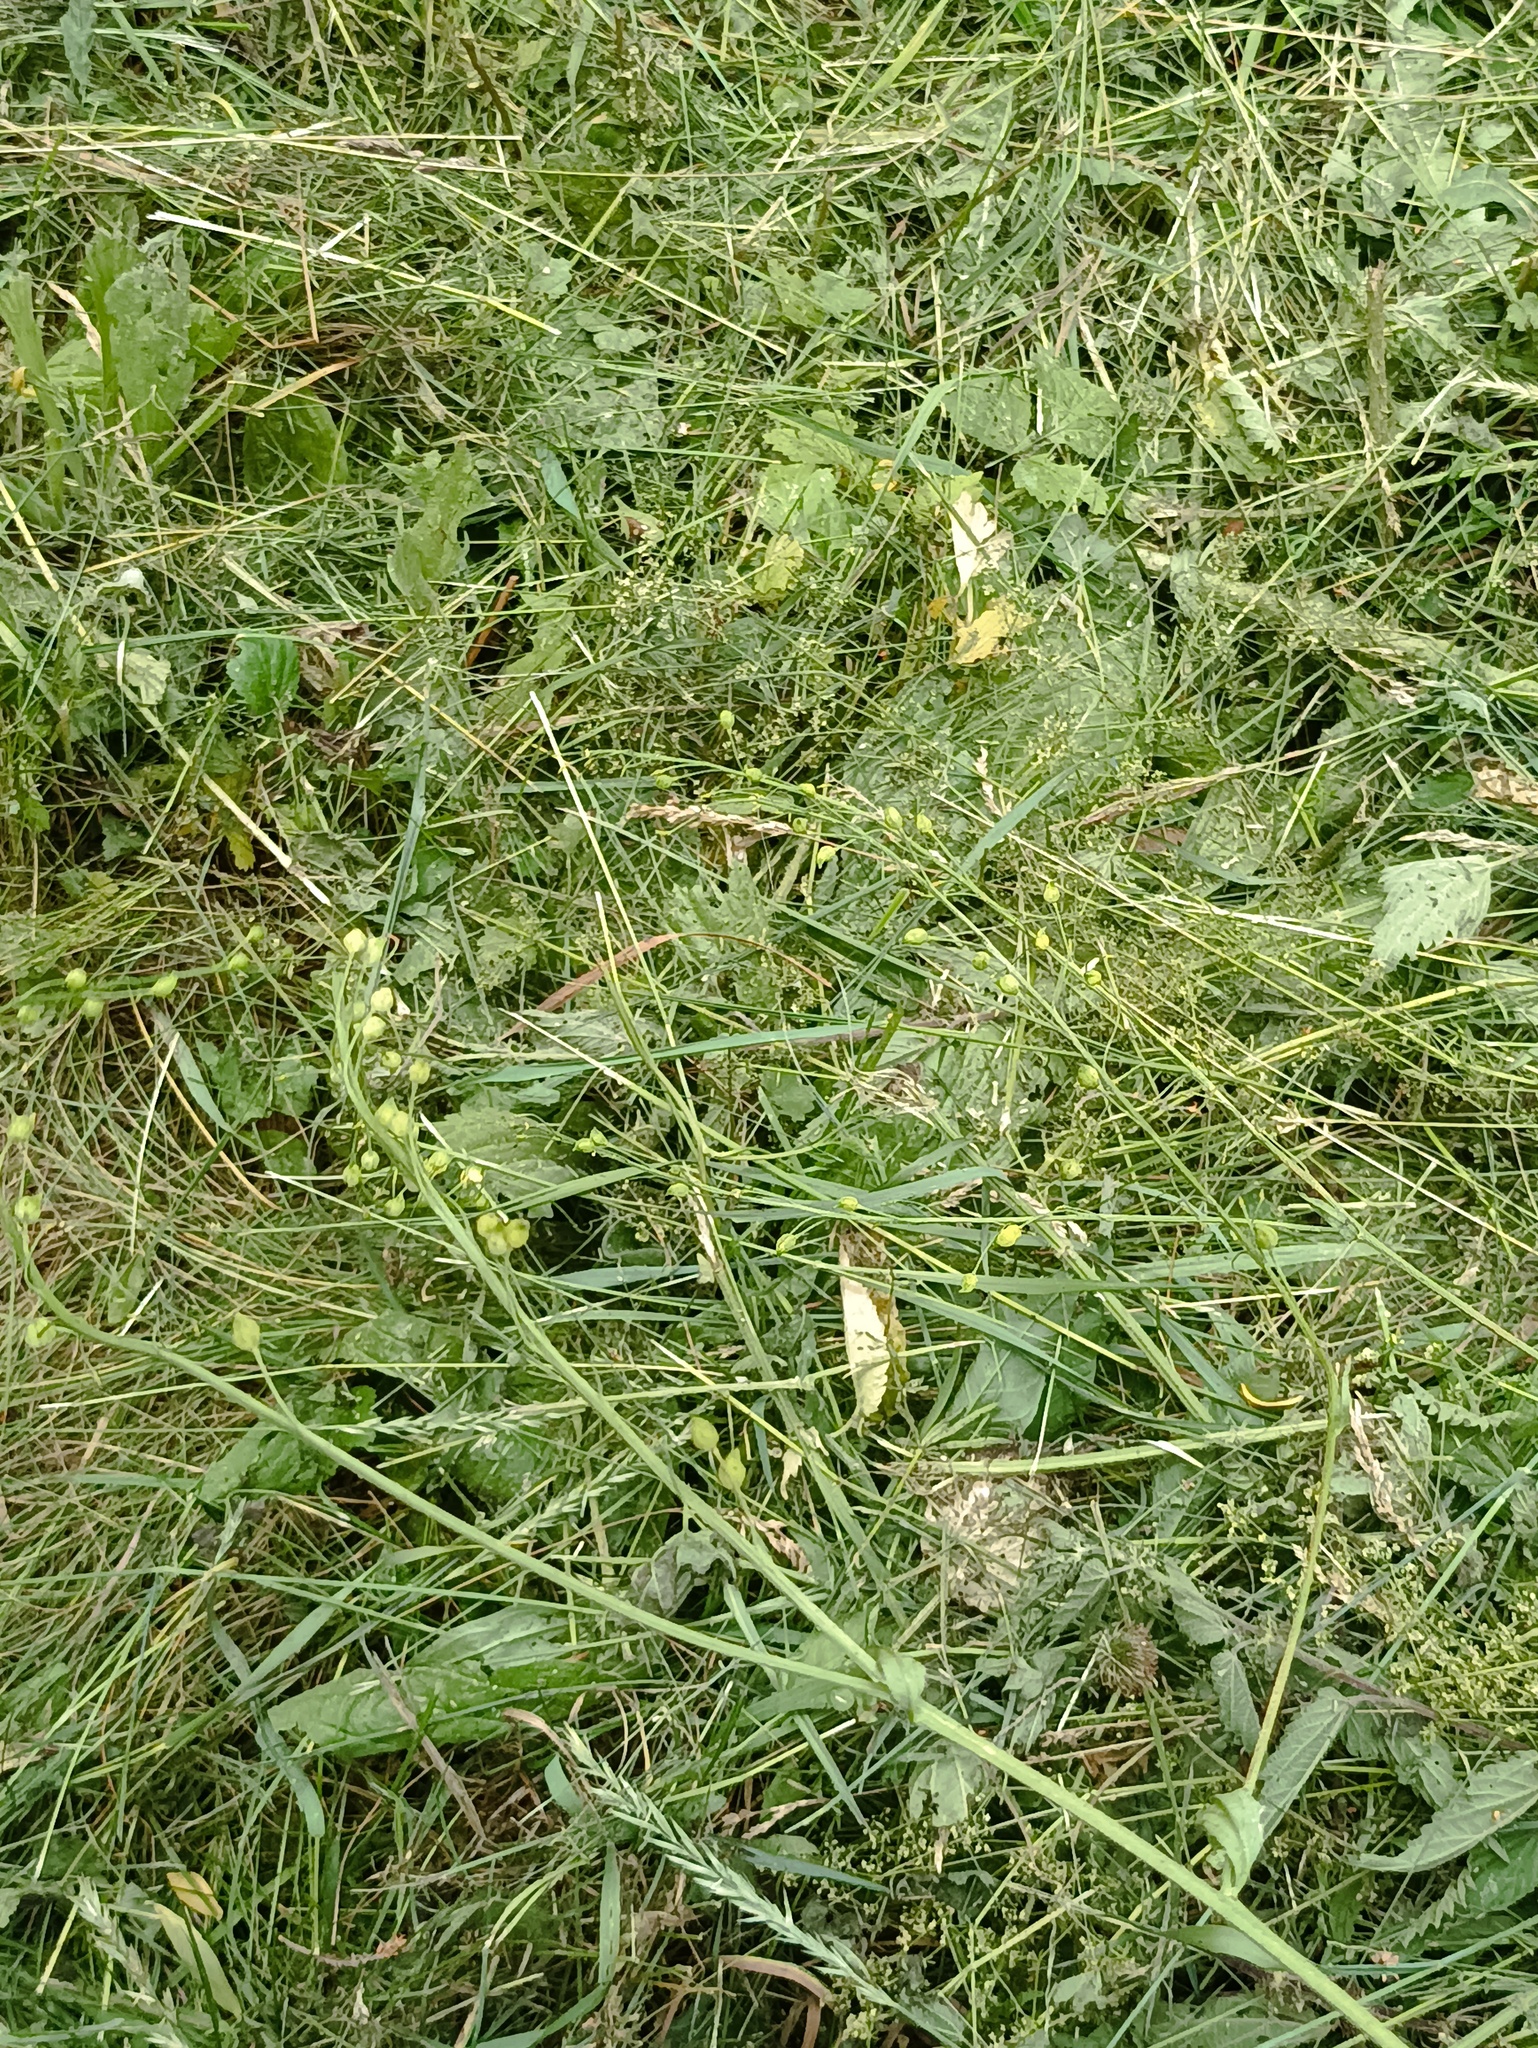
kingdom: Plantae
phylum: Tracheophyta
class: Magnoliopsida
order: Brassicales
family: Brassicaceae
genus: Bunias
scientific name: Bunias orientalis
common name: Warty-cabbage
